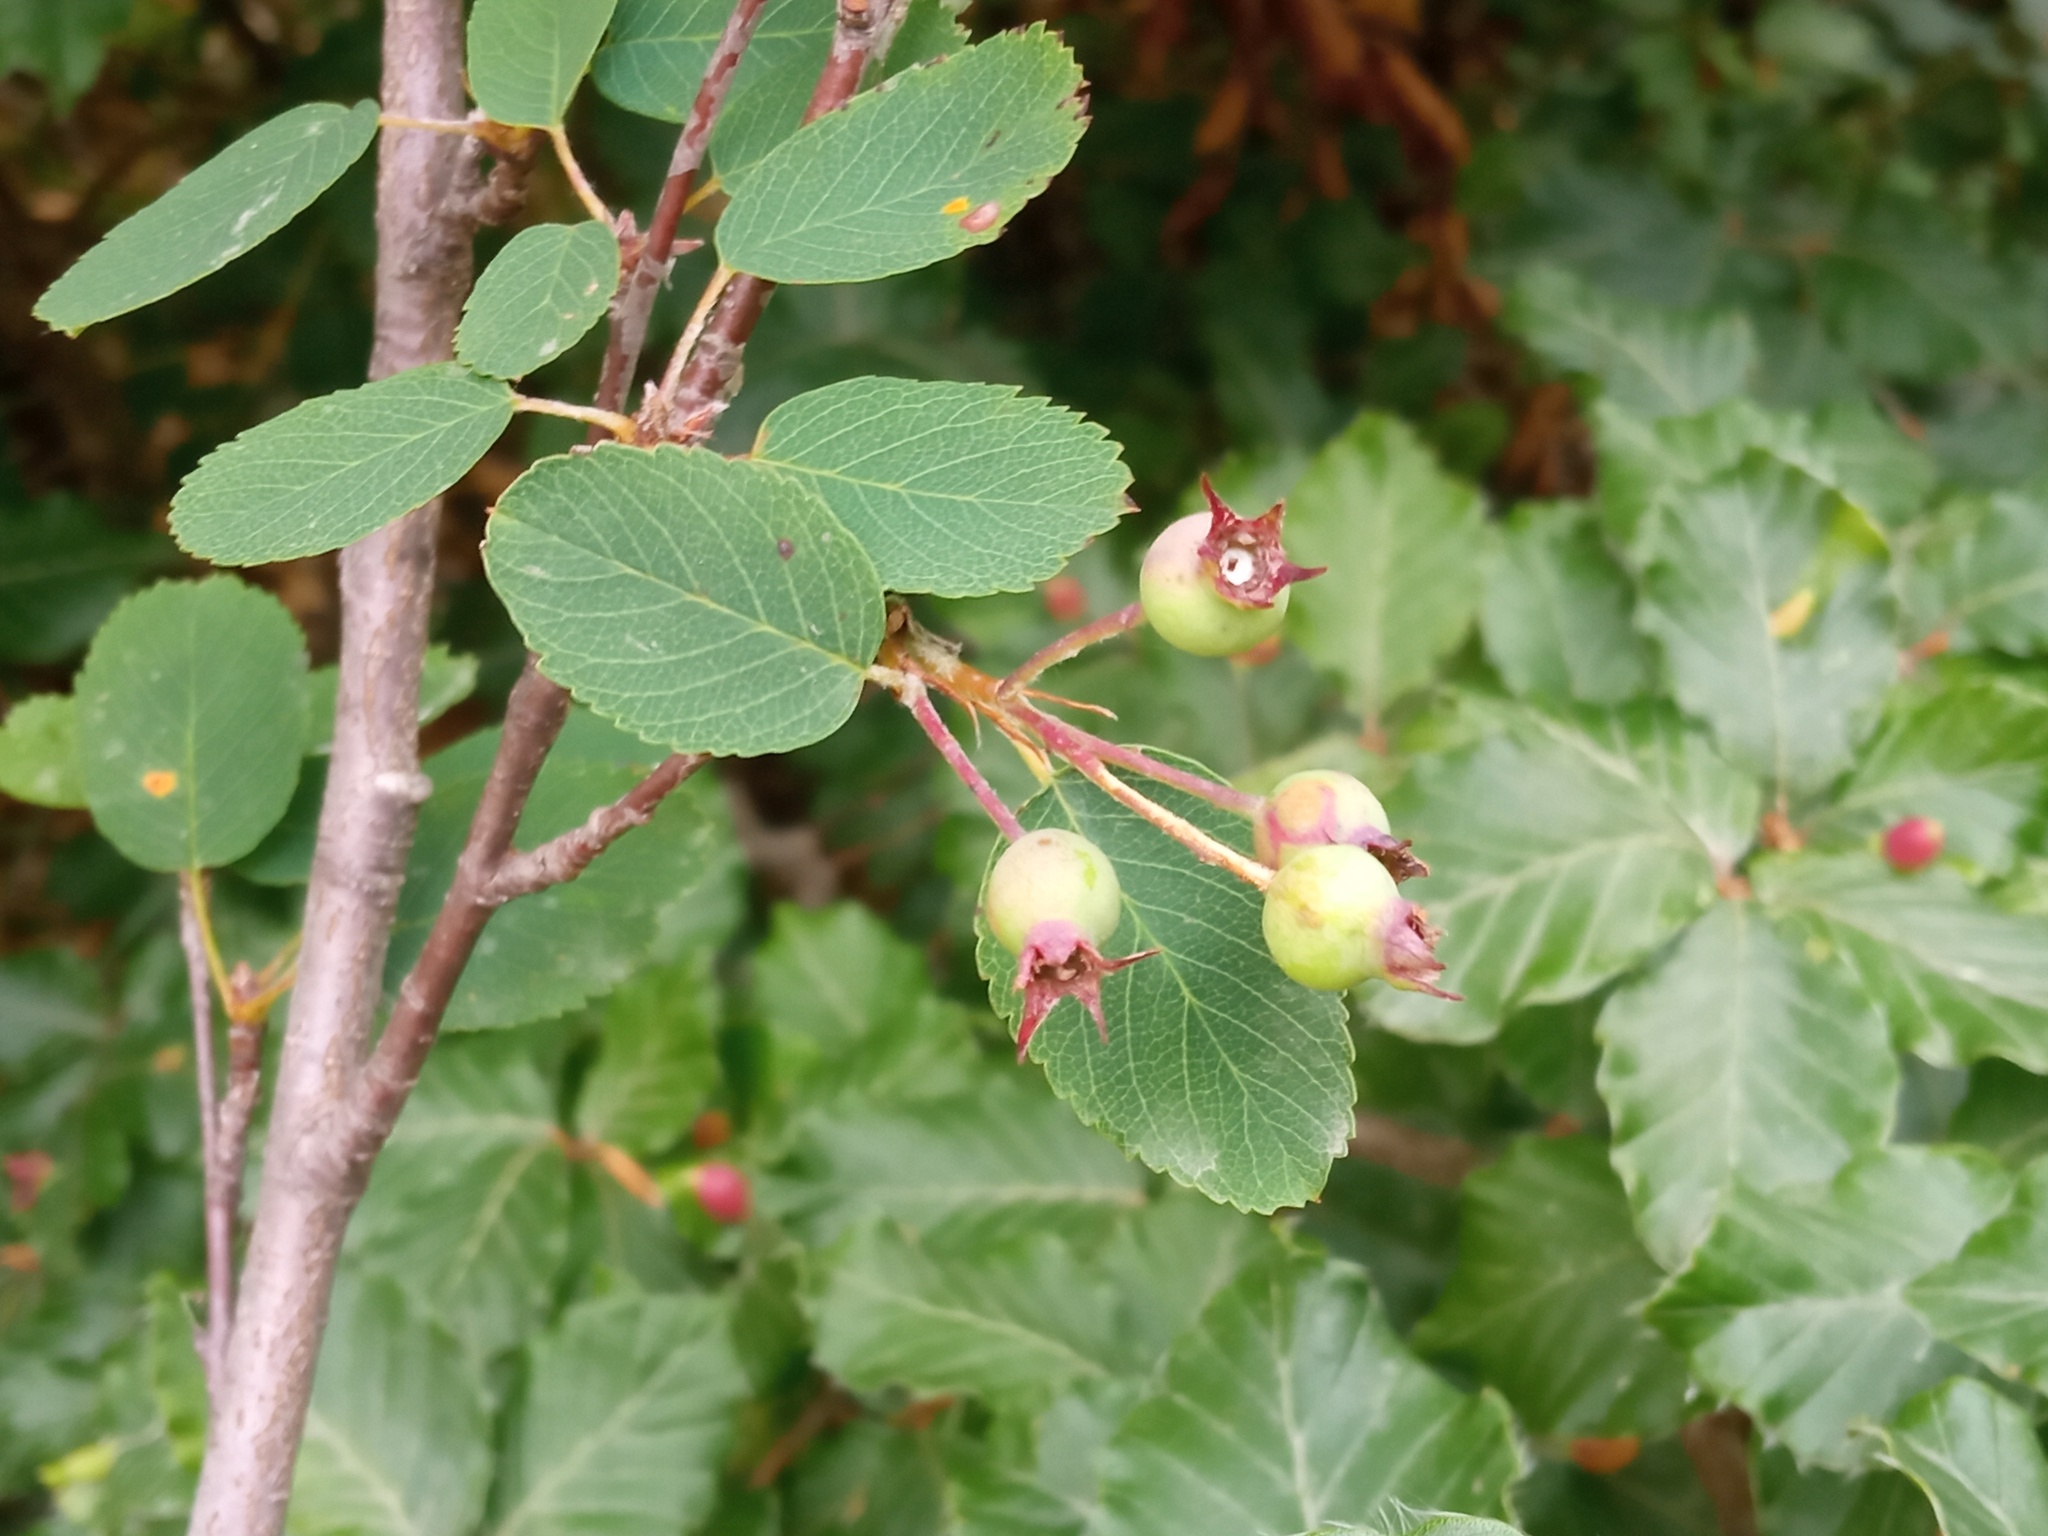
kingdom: Plantae
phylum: Tracheophyta
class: Magnoliopsida
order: Rosales
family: Rosaceae
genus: Amelanchier
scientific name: Amelanchier ovalis
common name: Serviceberry
